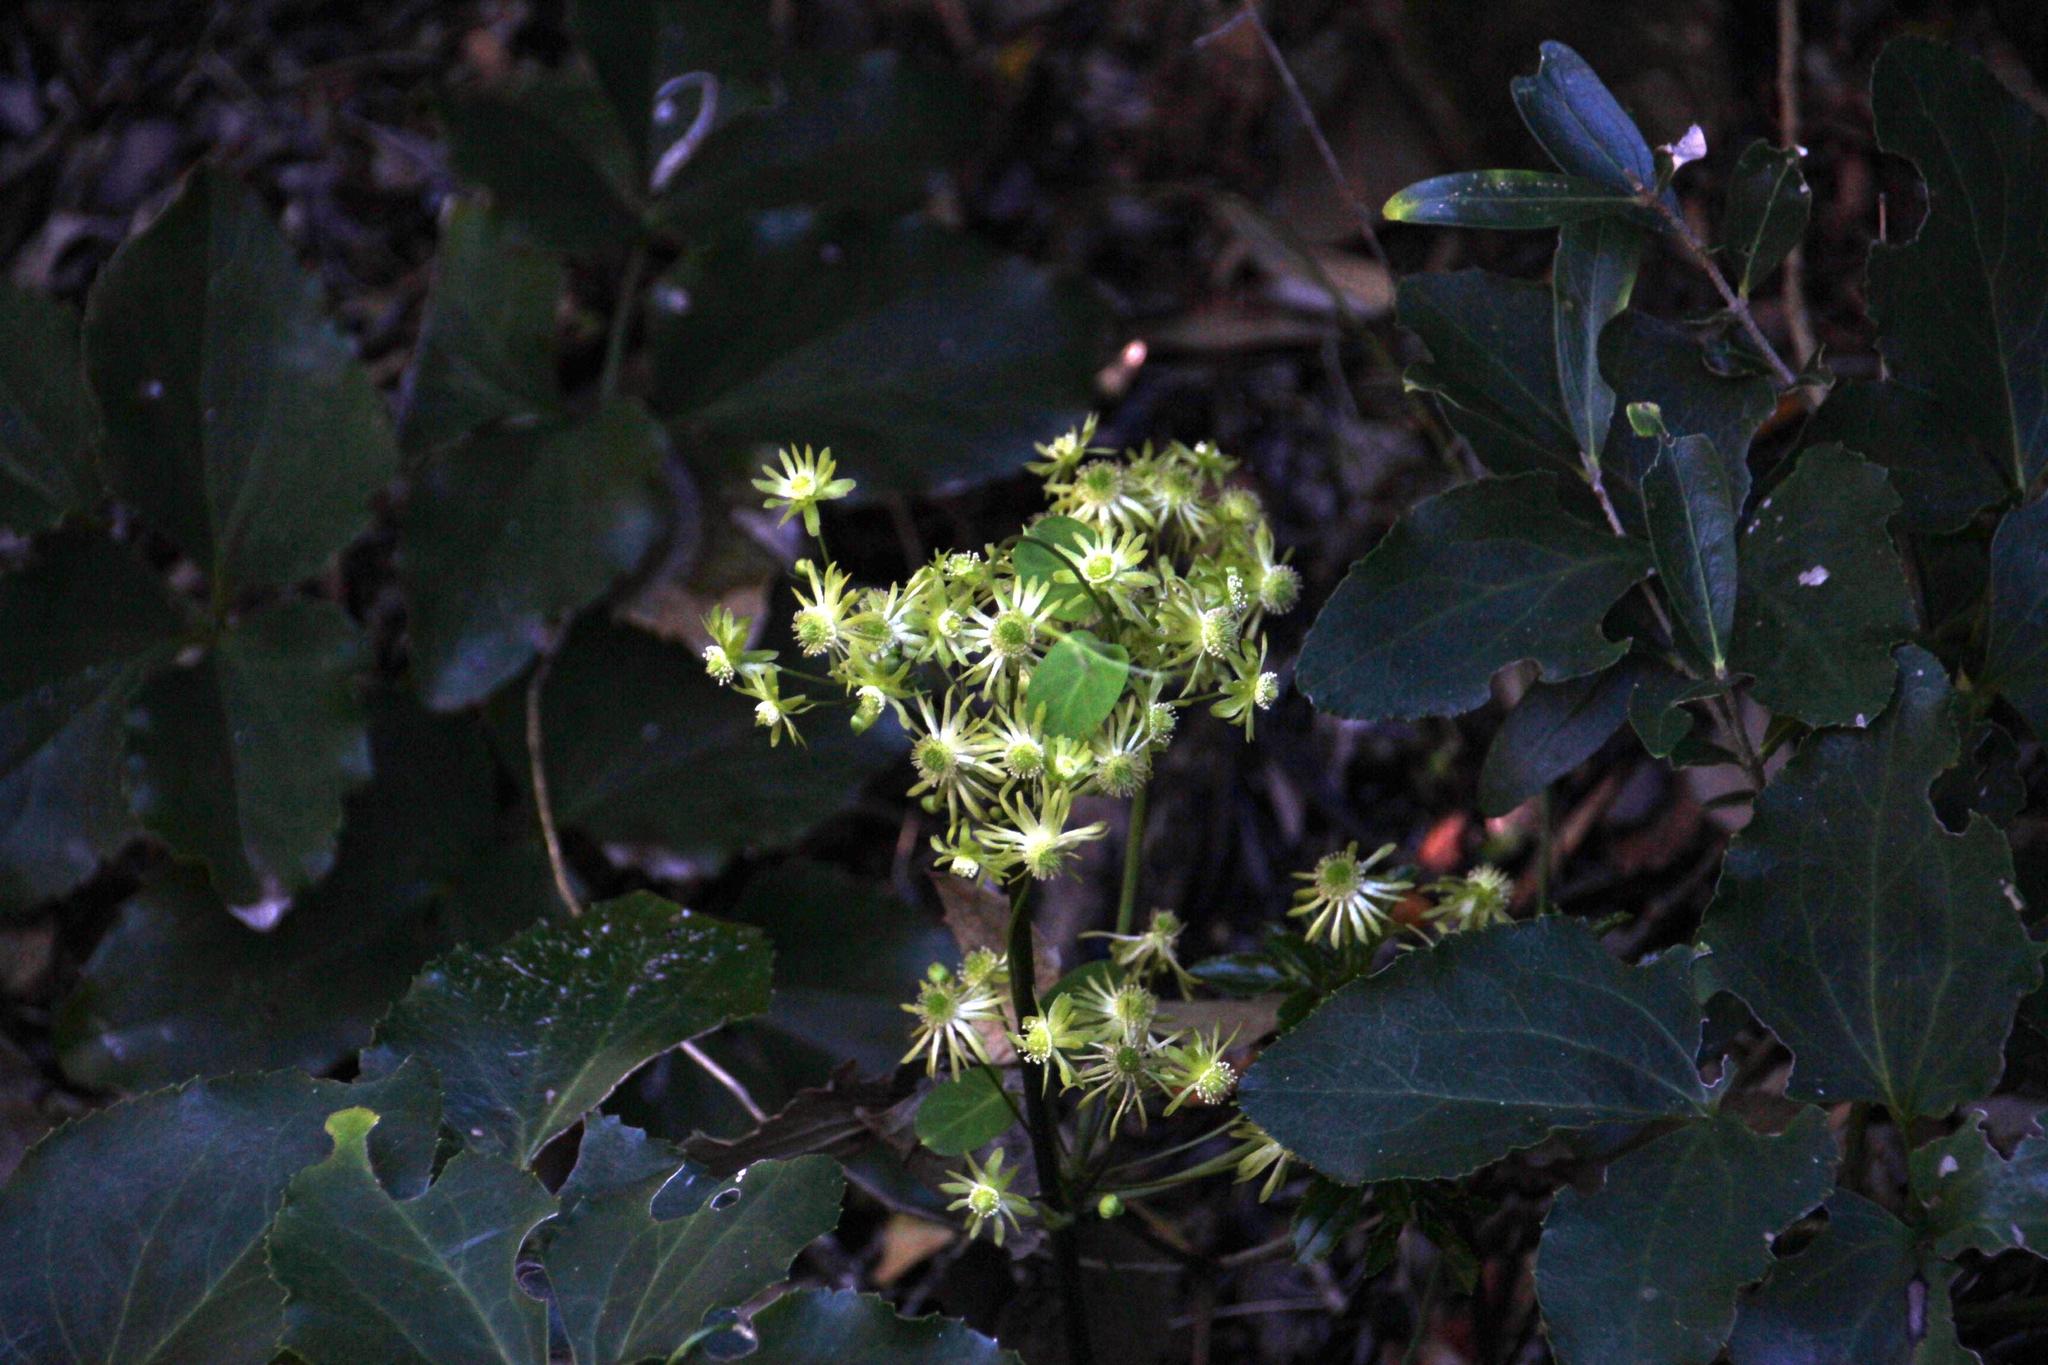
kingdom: Plantae
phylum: Tracheophyta
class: Magnoliopsida
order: Ranunculales
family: Ranunculaceae
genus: Knowltonia
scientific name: Knowltonia vesicatoria
